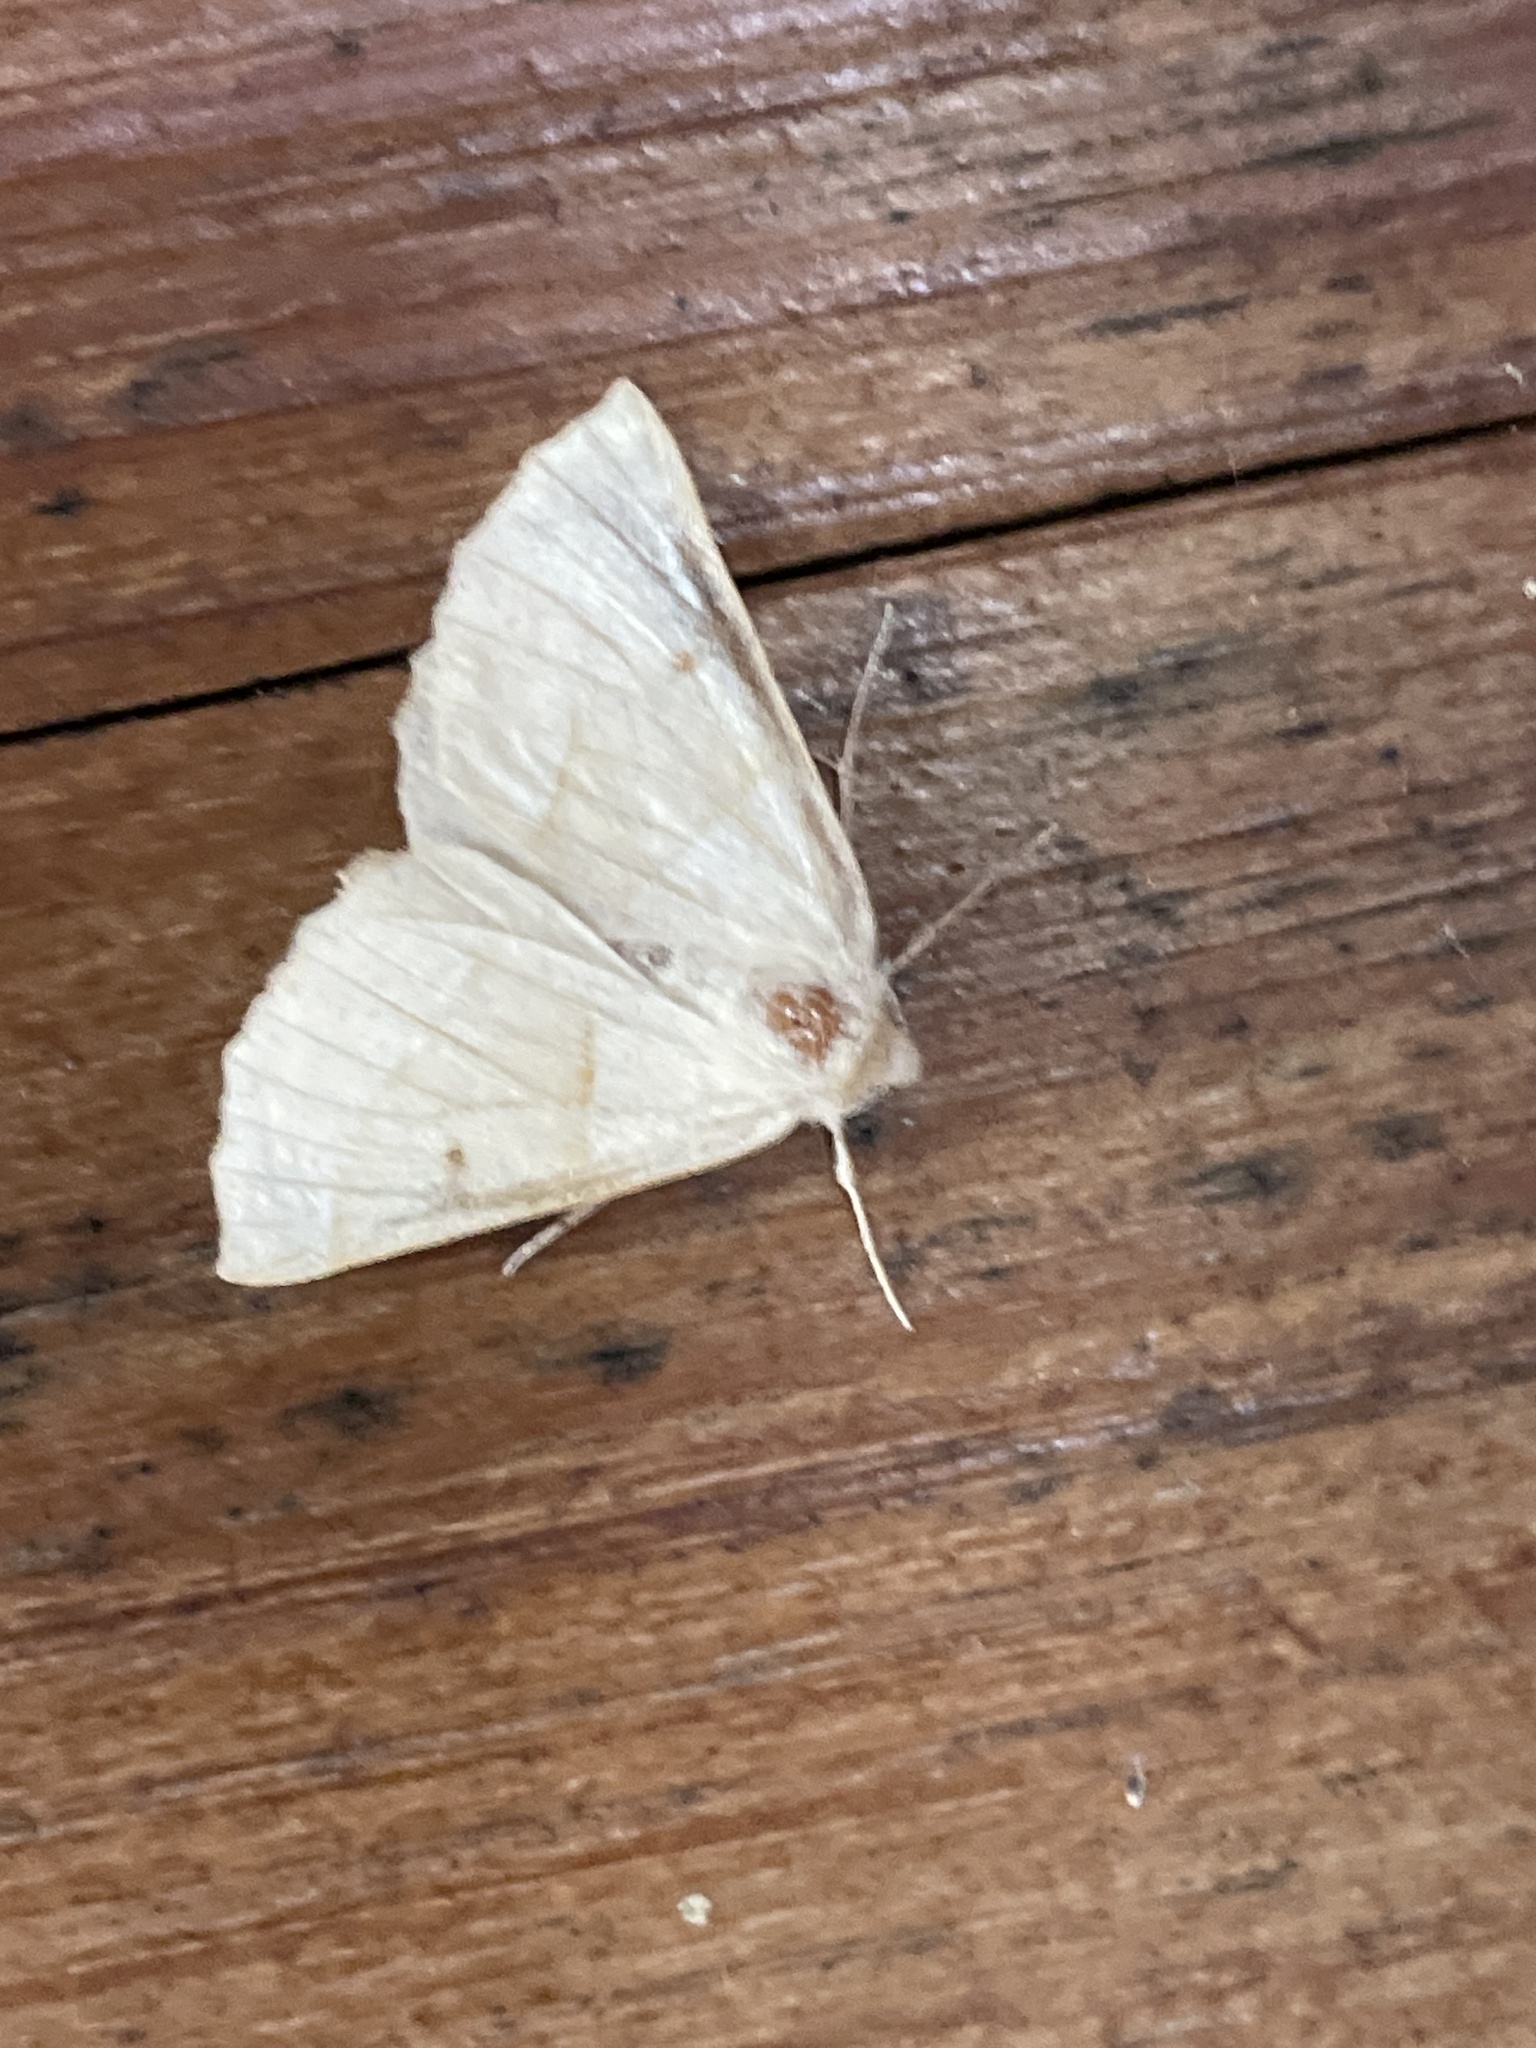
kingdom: Animalia
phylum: Arthropoda
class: Insecta
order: Lepidoptera
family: Geometridae
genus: Crocallis
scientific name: Crocallis elinguaria
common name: Scalloped oak
